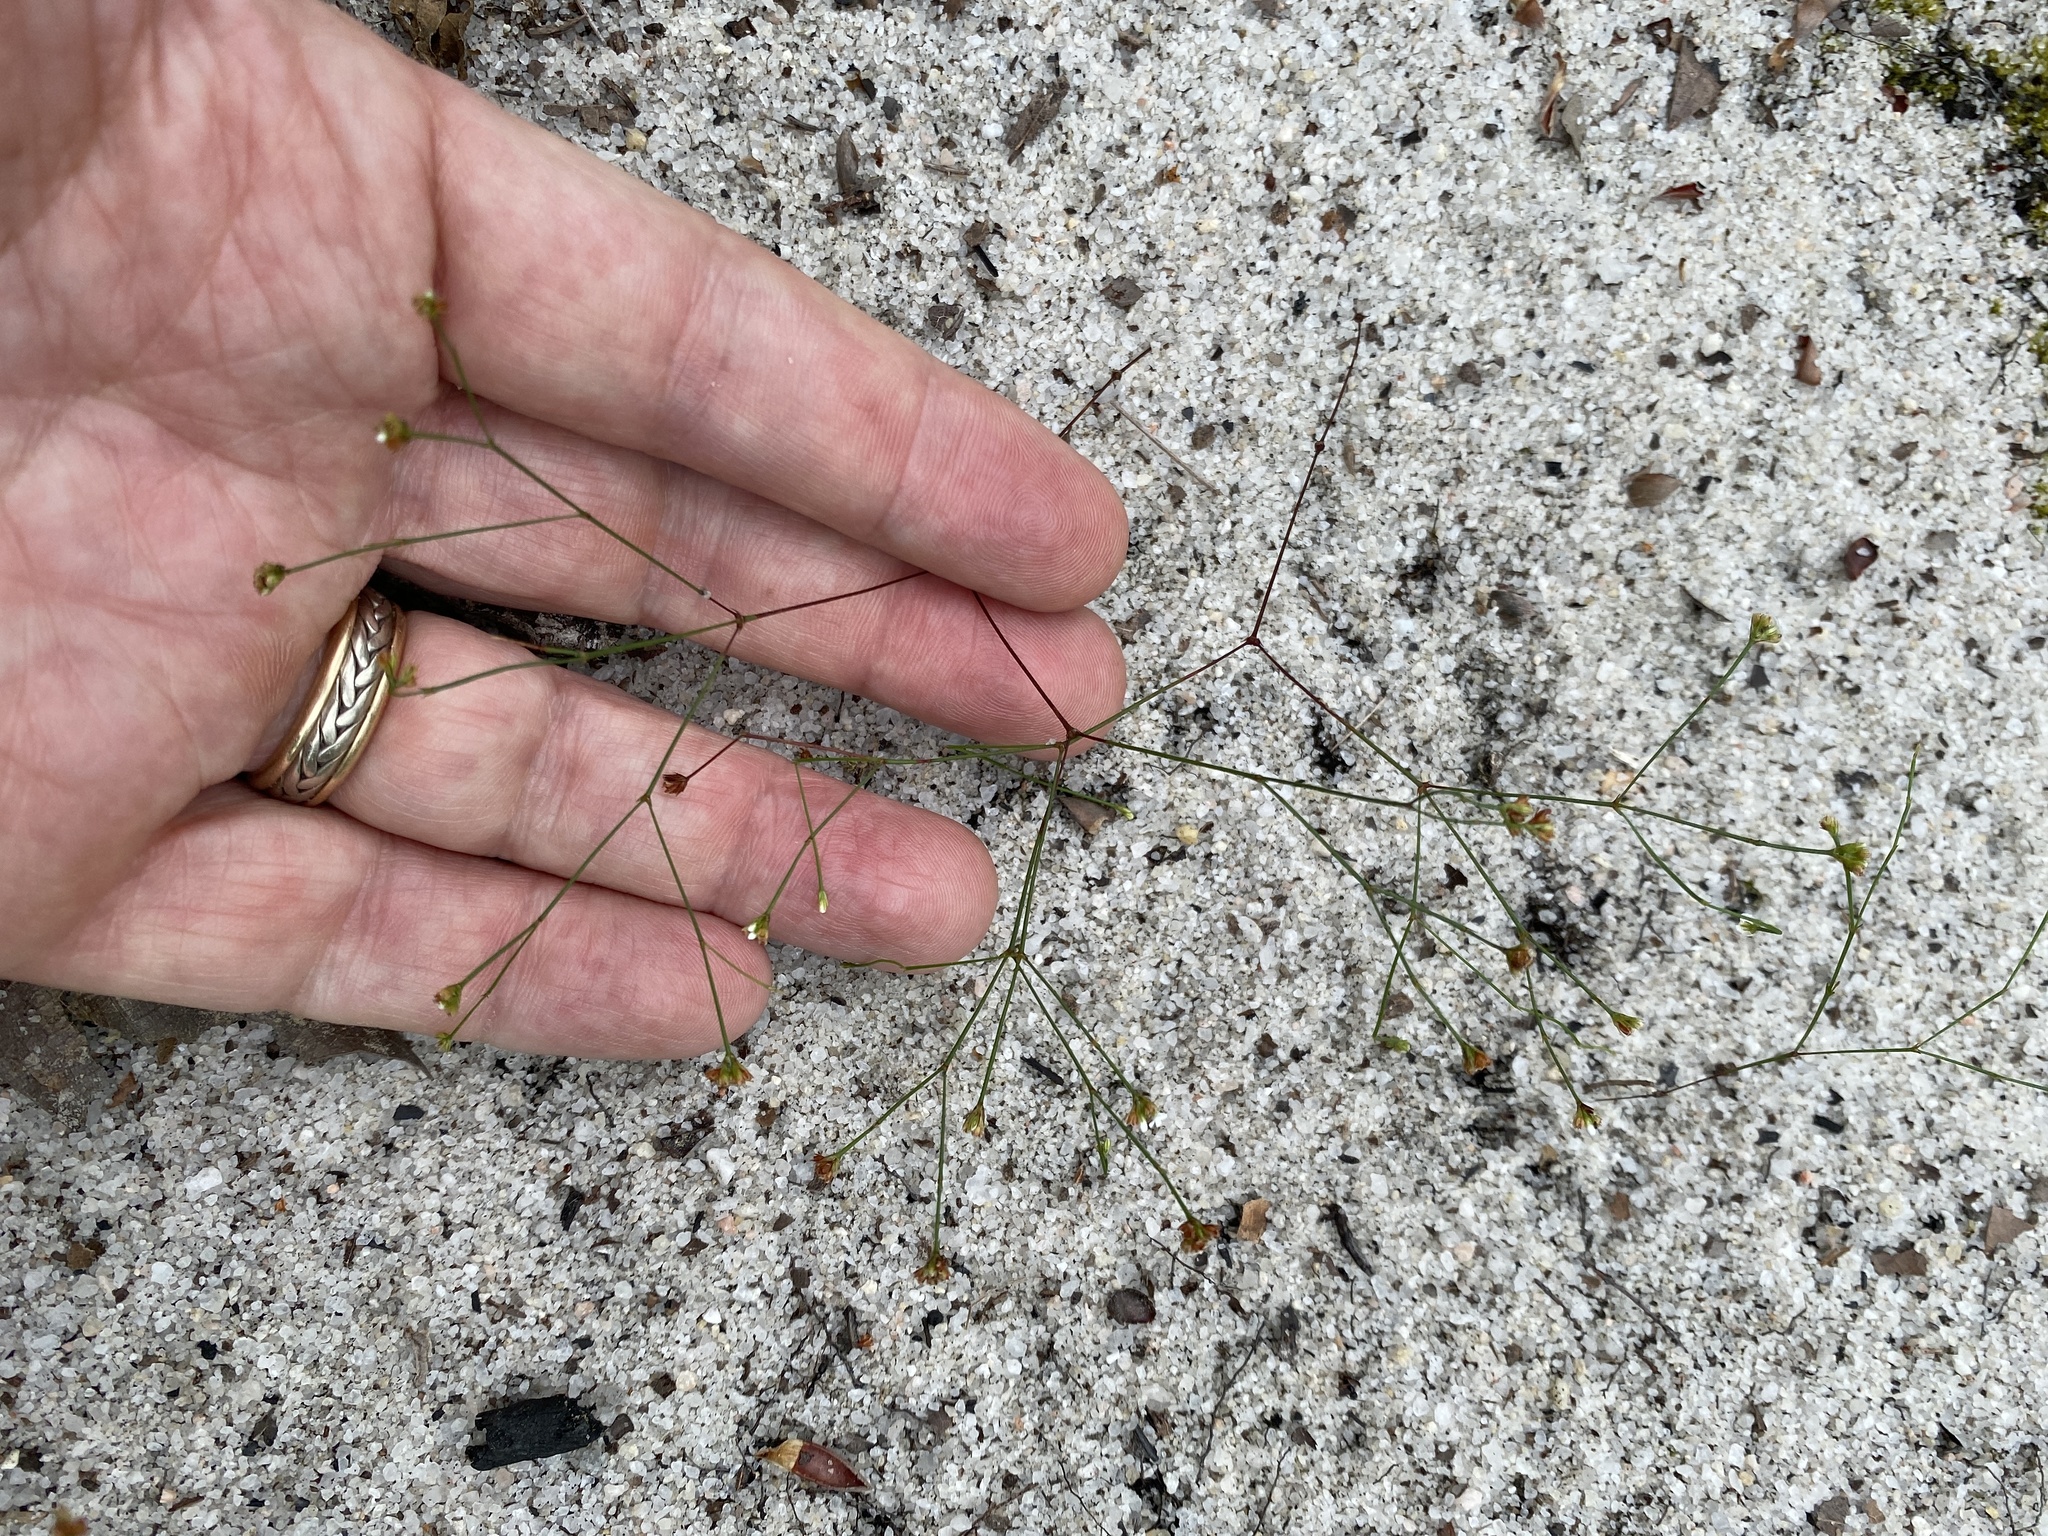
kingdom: Plantae
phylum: Tracheophyta
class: Magnoliopsida
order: Caryophyllales
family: Caryophyllaceae
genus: Stipulicida
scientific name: Stipulicida setacea
